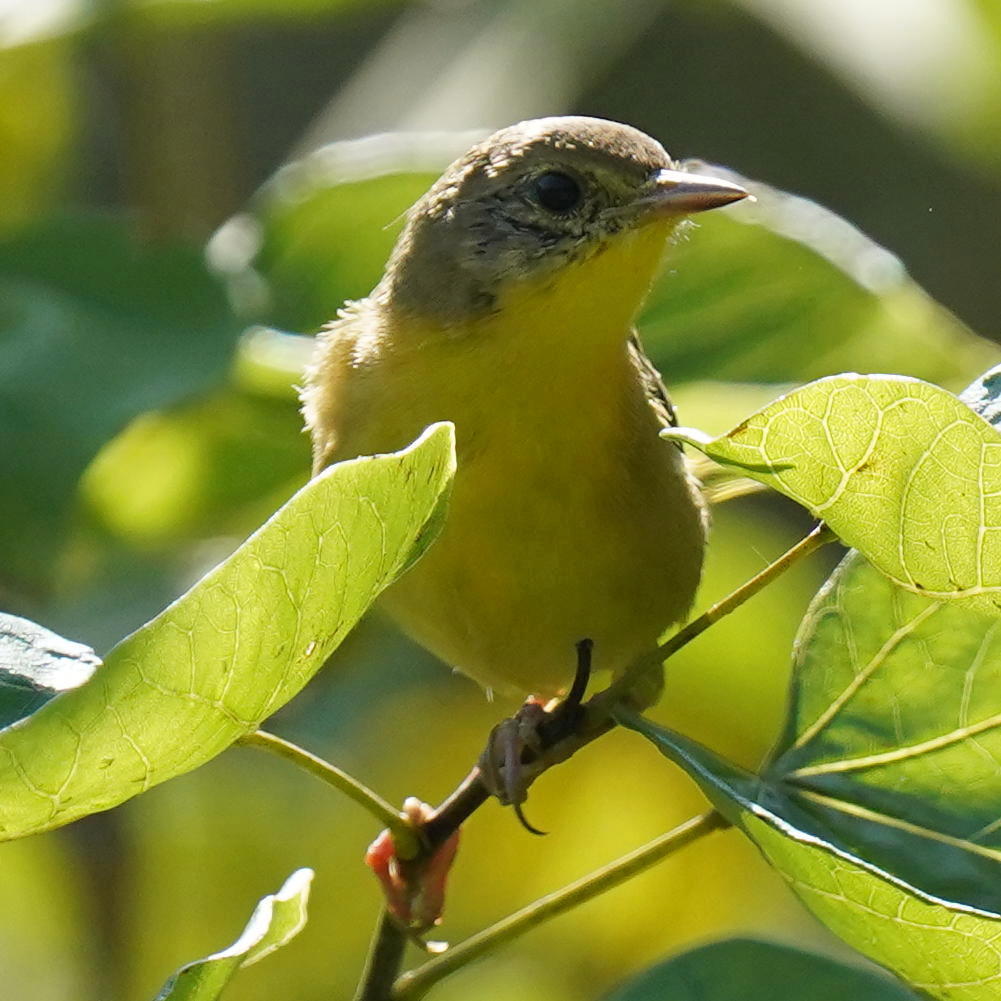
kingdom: Animalia
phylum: Chordata
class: Aves
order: Passeriformes
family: Parulidae
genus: Geothlypis
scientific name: Geothlypis trichas
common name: Common yellowthroat
